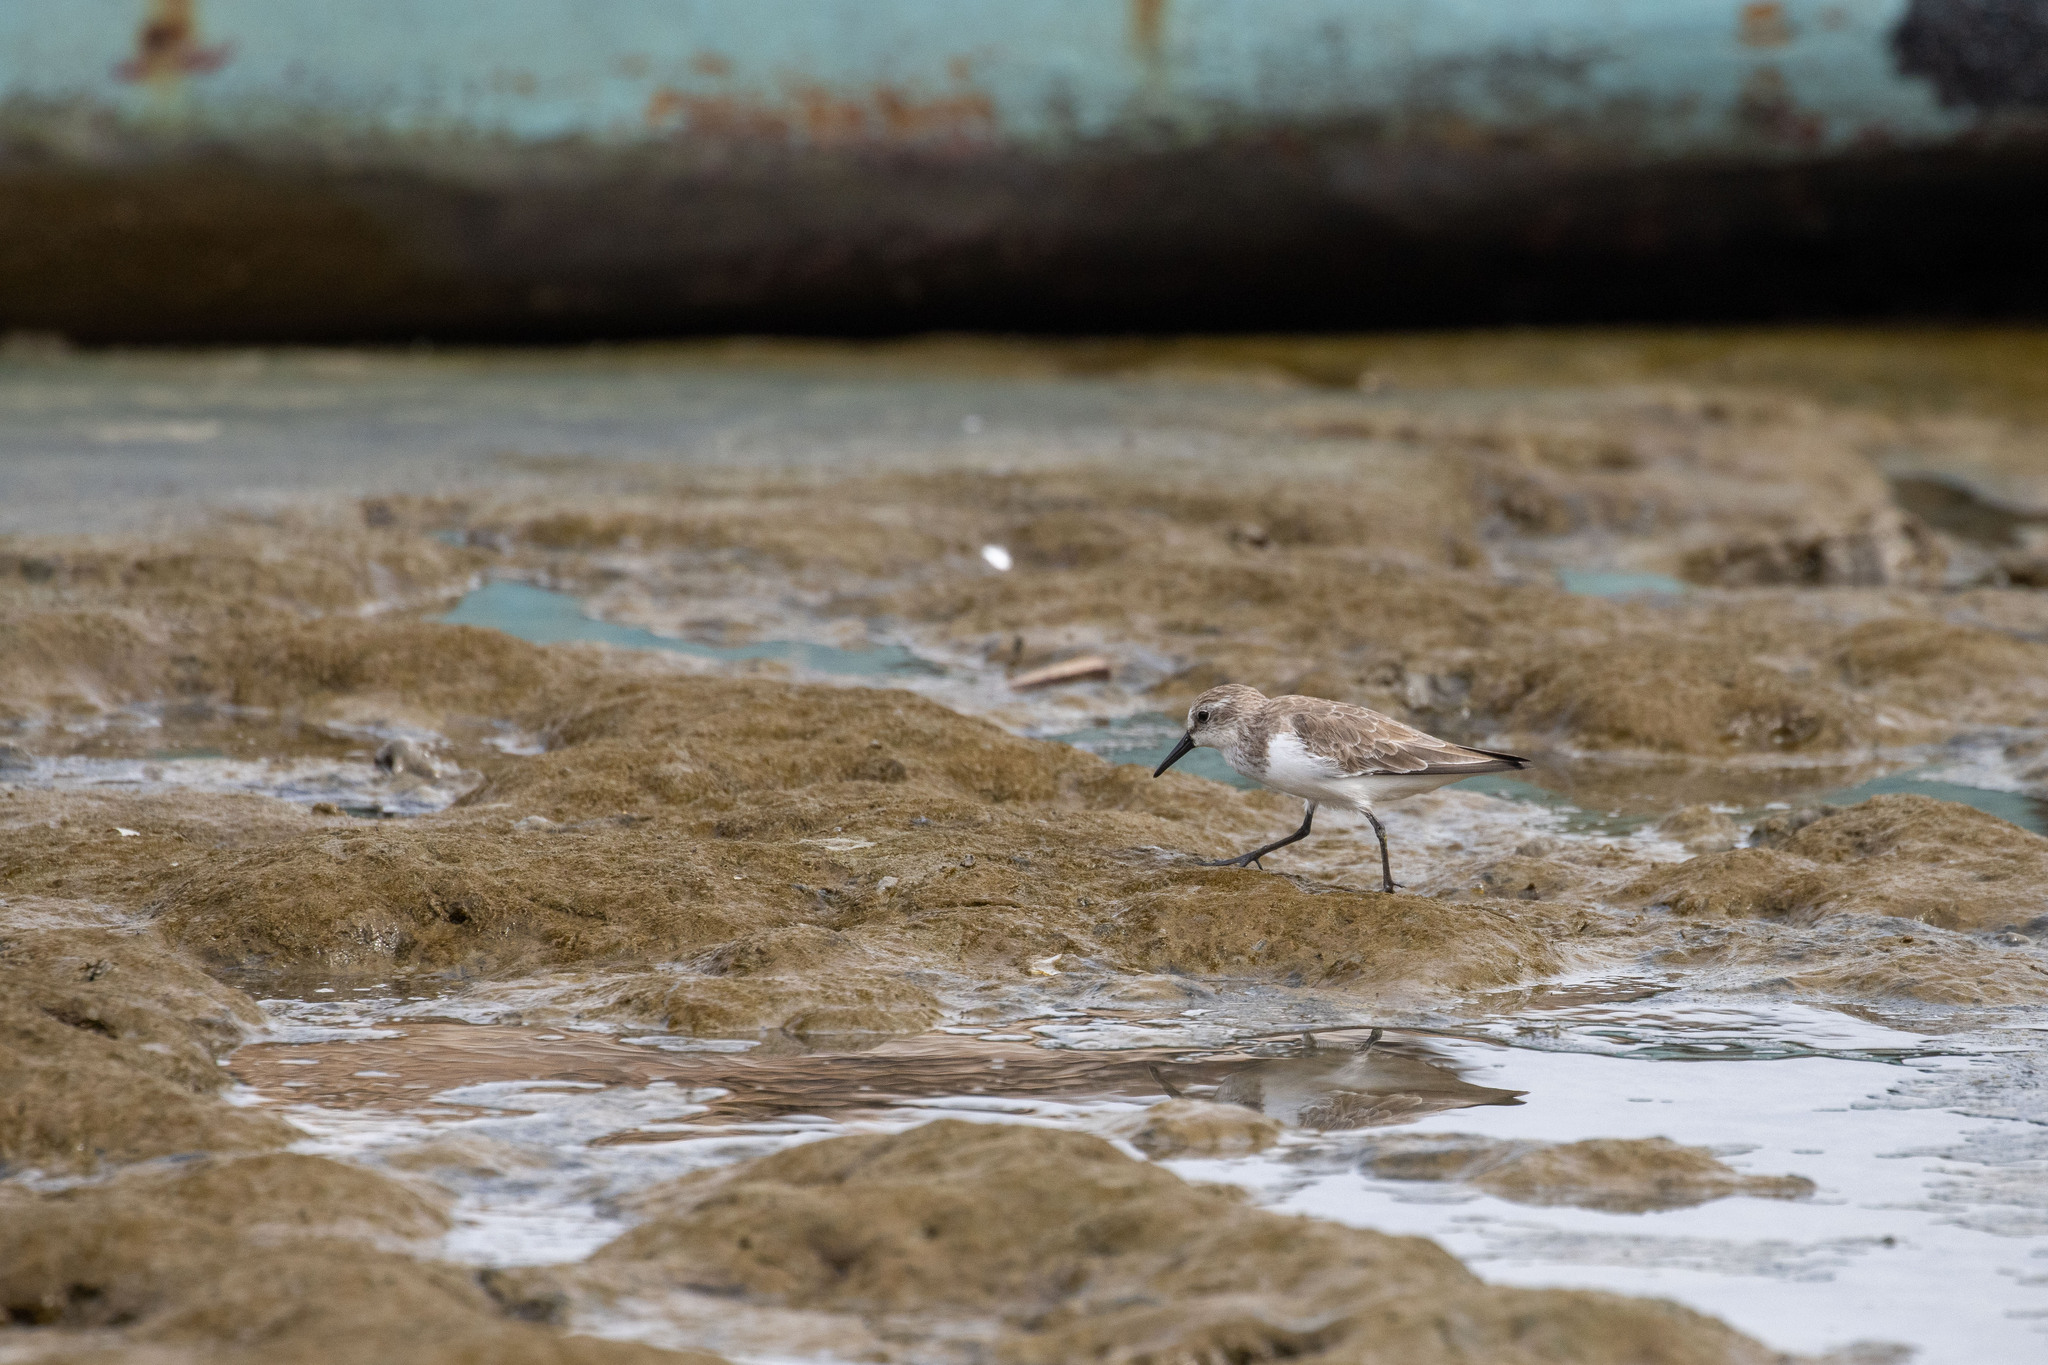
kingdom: Animalia
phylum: Chordata
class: Aves
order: Charadriiformes
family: Scolopacidae
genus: Calidris
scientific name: Calidris pusilla
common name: Semipalmated sandpiper
